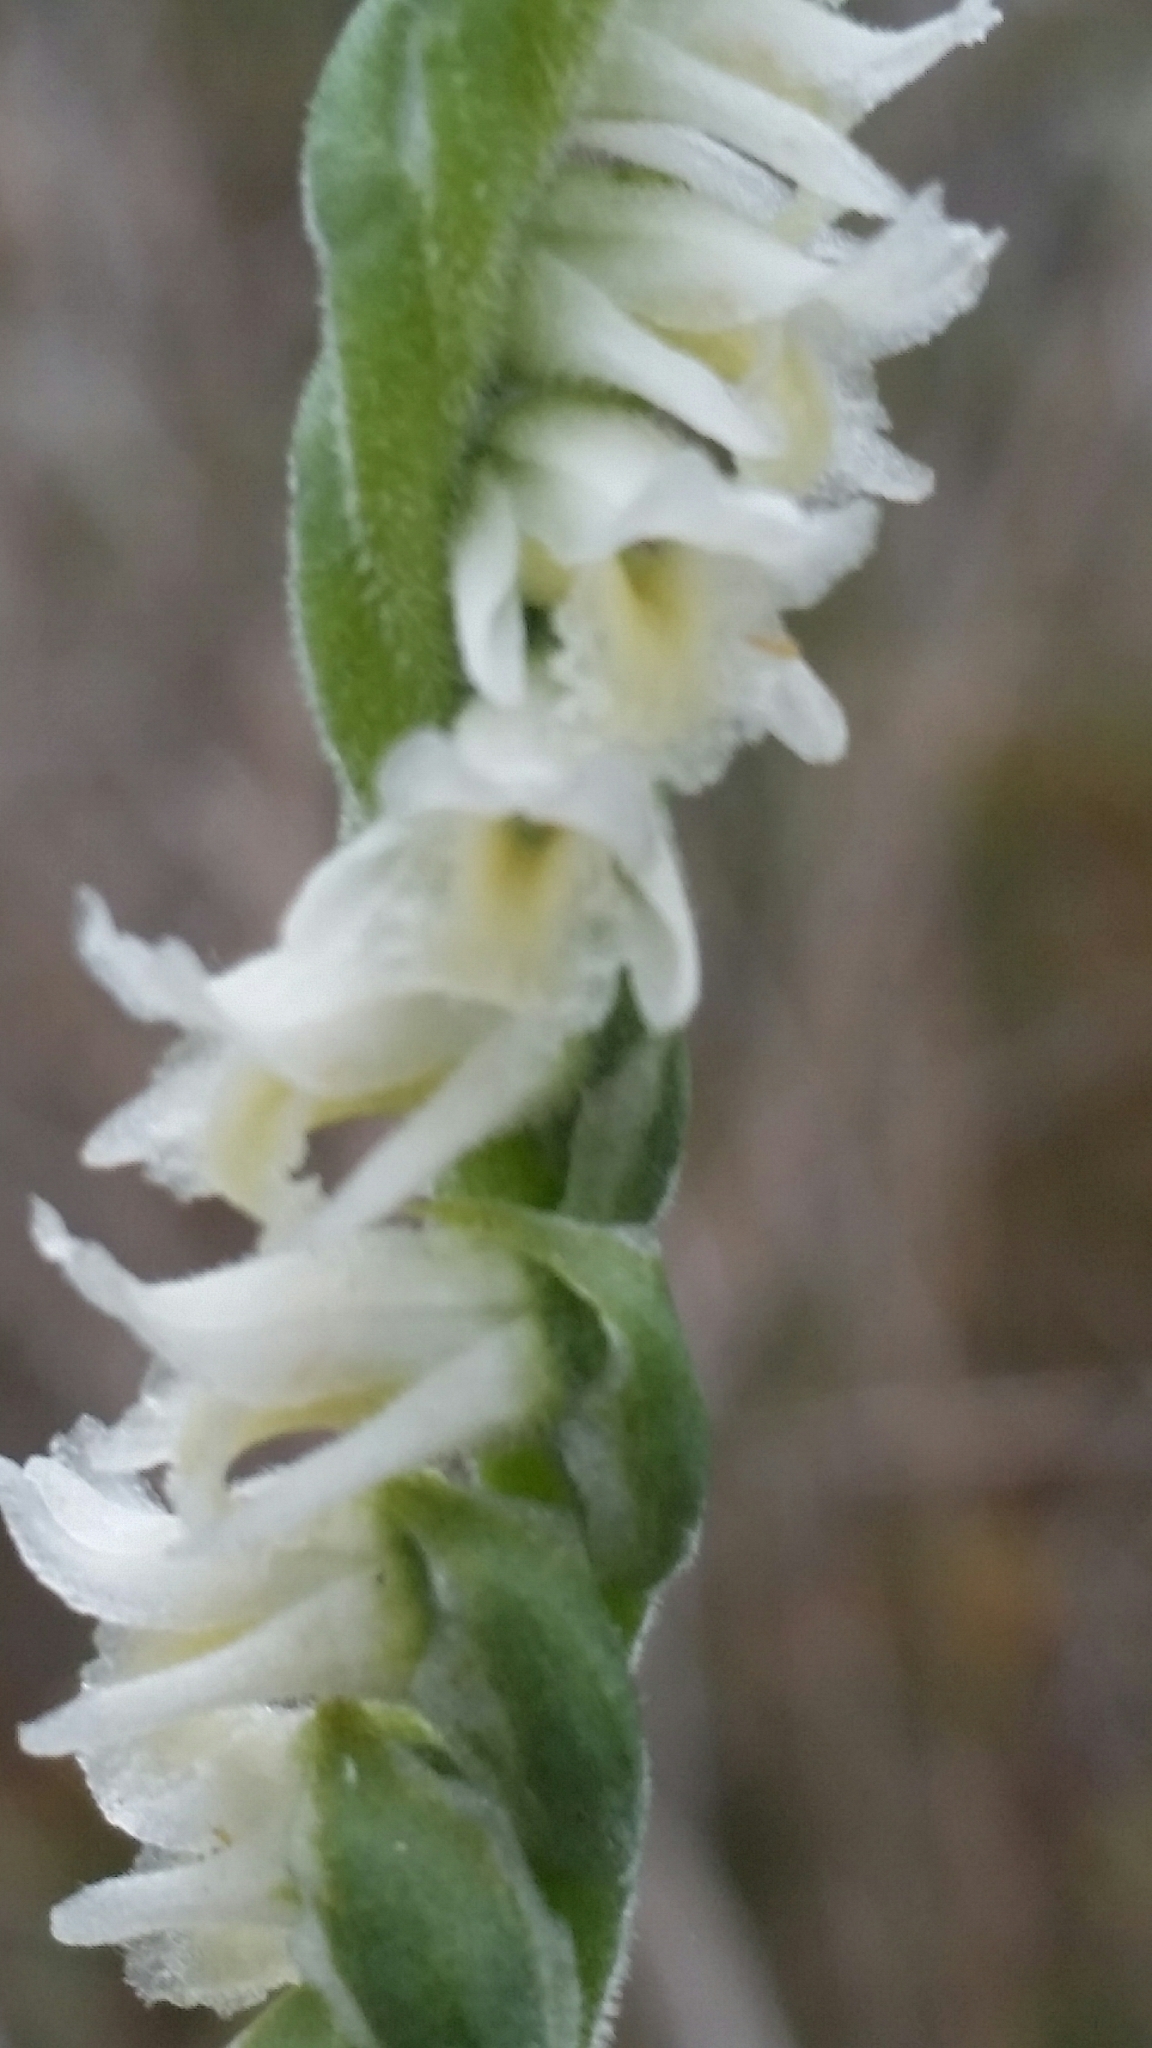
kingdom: Plantae
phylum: Tracheophyta
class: Liliopsida
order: Asparagales
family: Orchidaceae
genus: Spiranthes
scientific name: Spiranthes vernalis
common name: Spring ladies'-tresses
